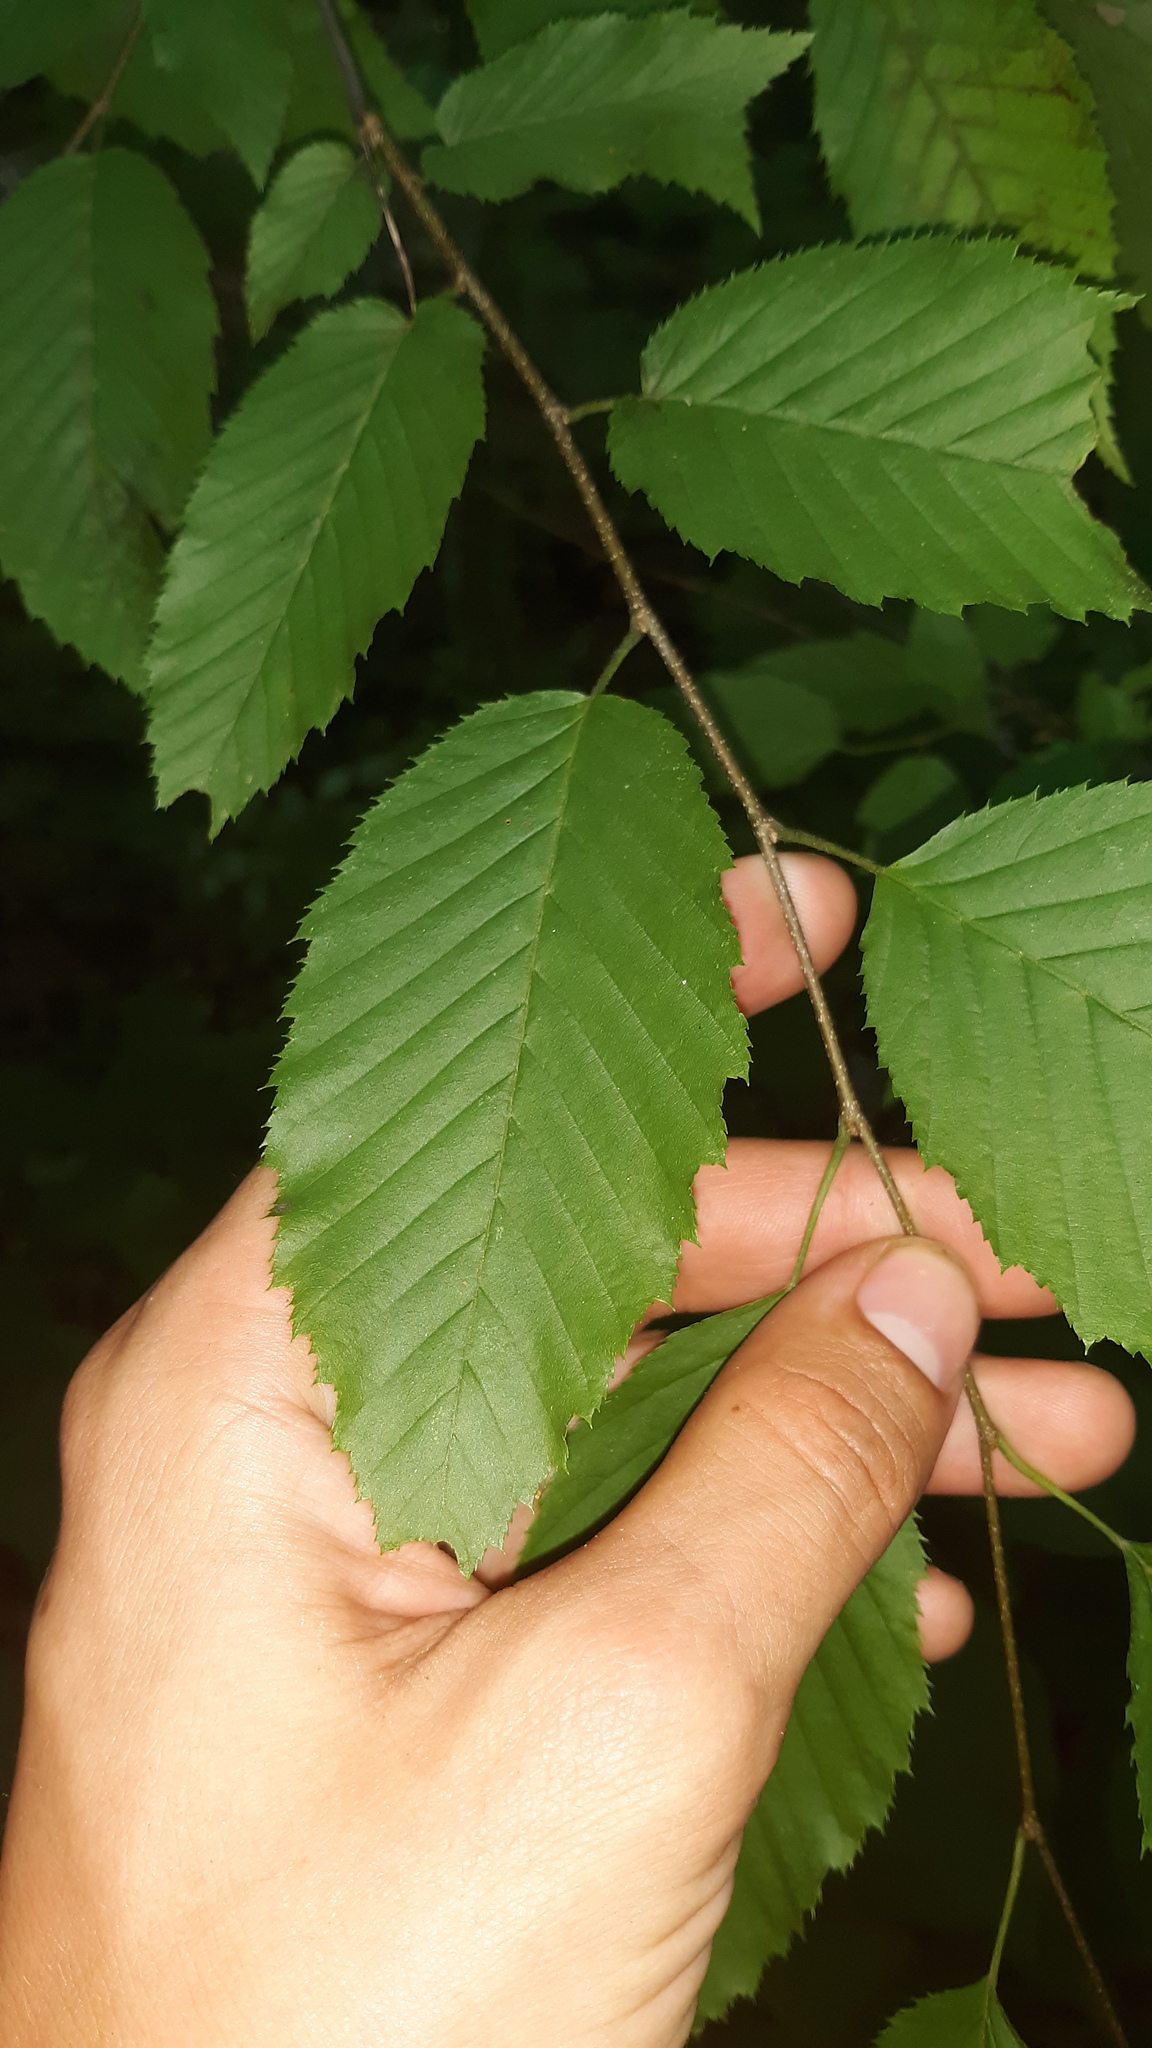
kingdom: Plantae
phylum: Tracheophyta
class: Magnoliopsida
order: Fagales
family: Betulaceae
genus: Carpinus
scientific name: Carpinus caroliniana
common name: American hornbeam
